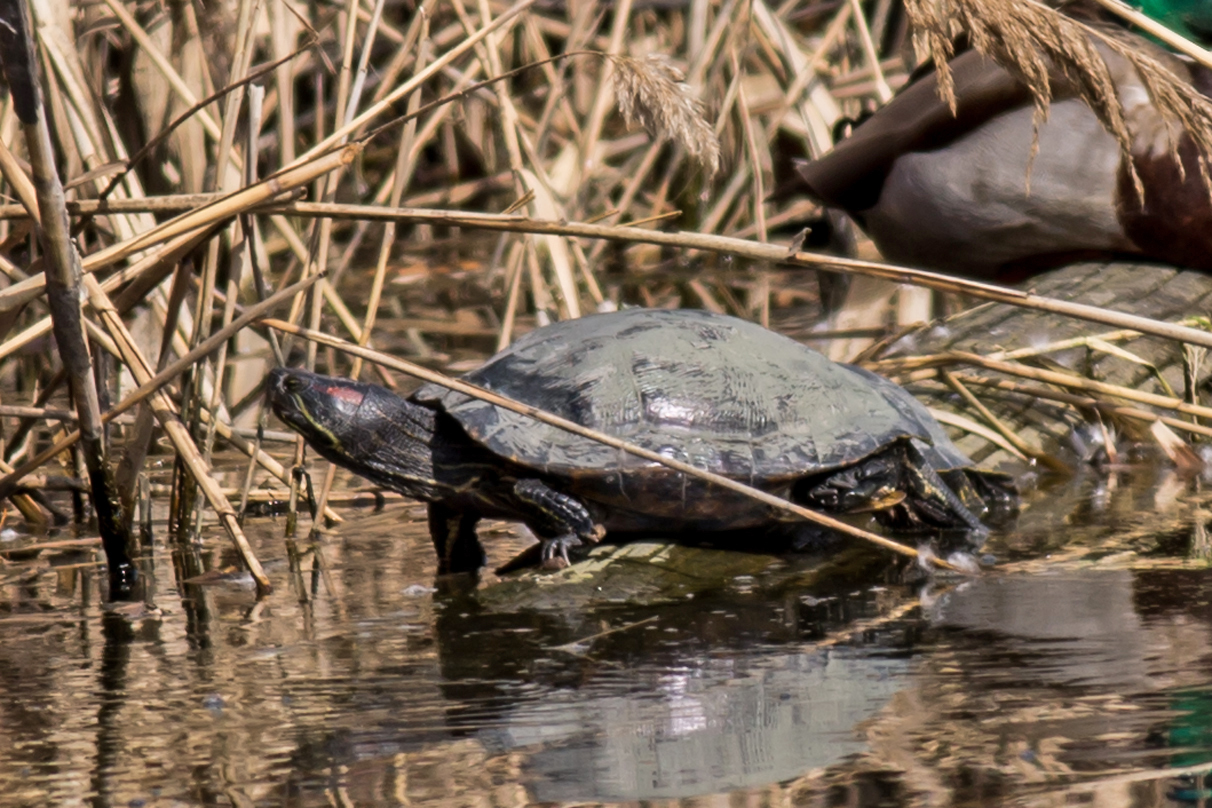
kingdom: Animalia
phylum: Chordata
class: Testudines
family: Emydidae
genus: Trachemys
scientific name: Trachemys scripta
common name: Slider
